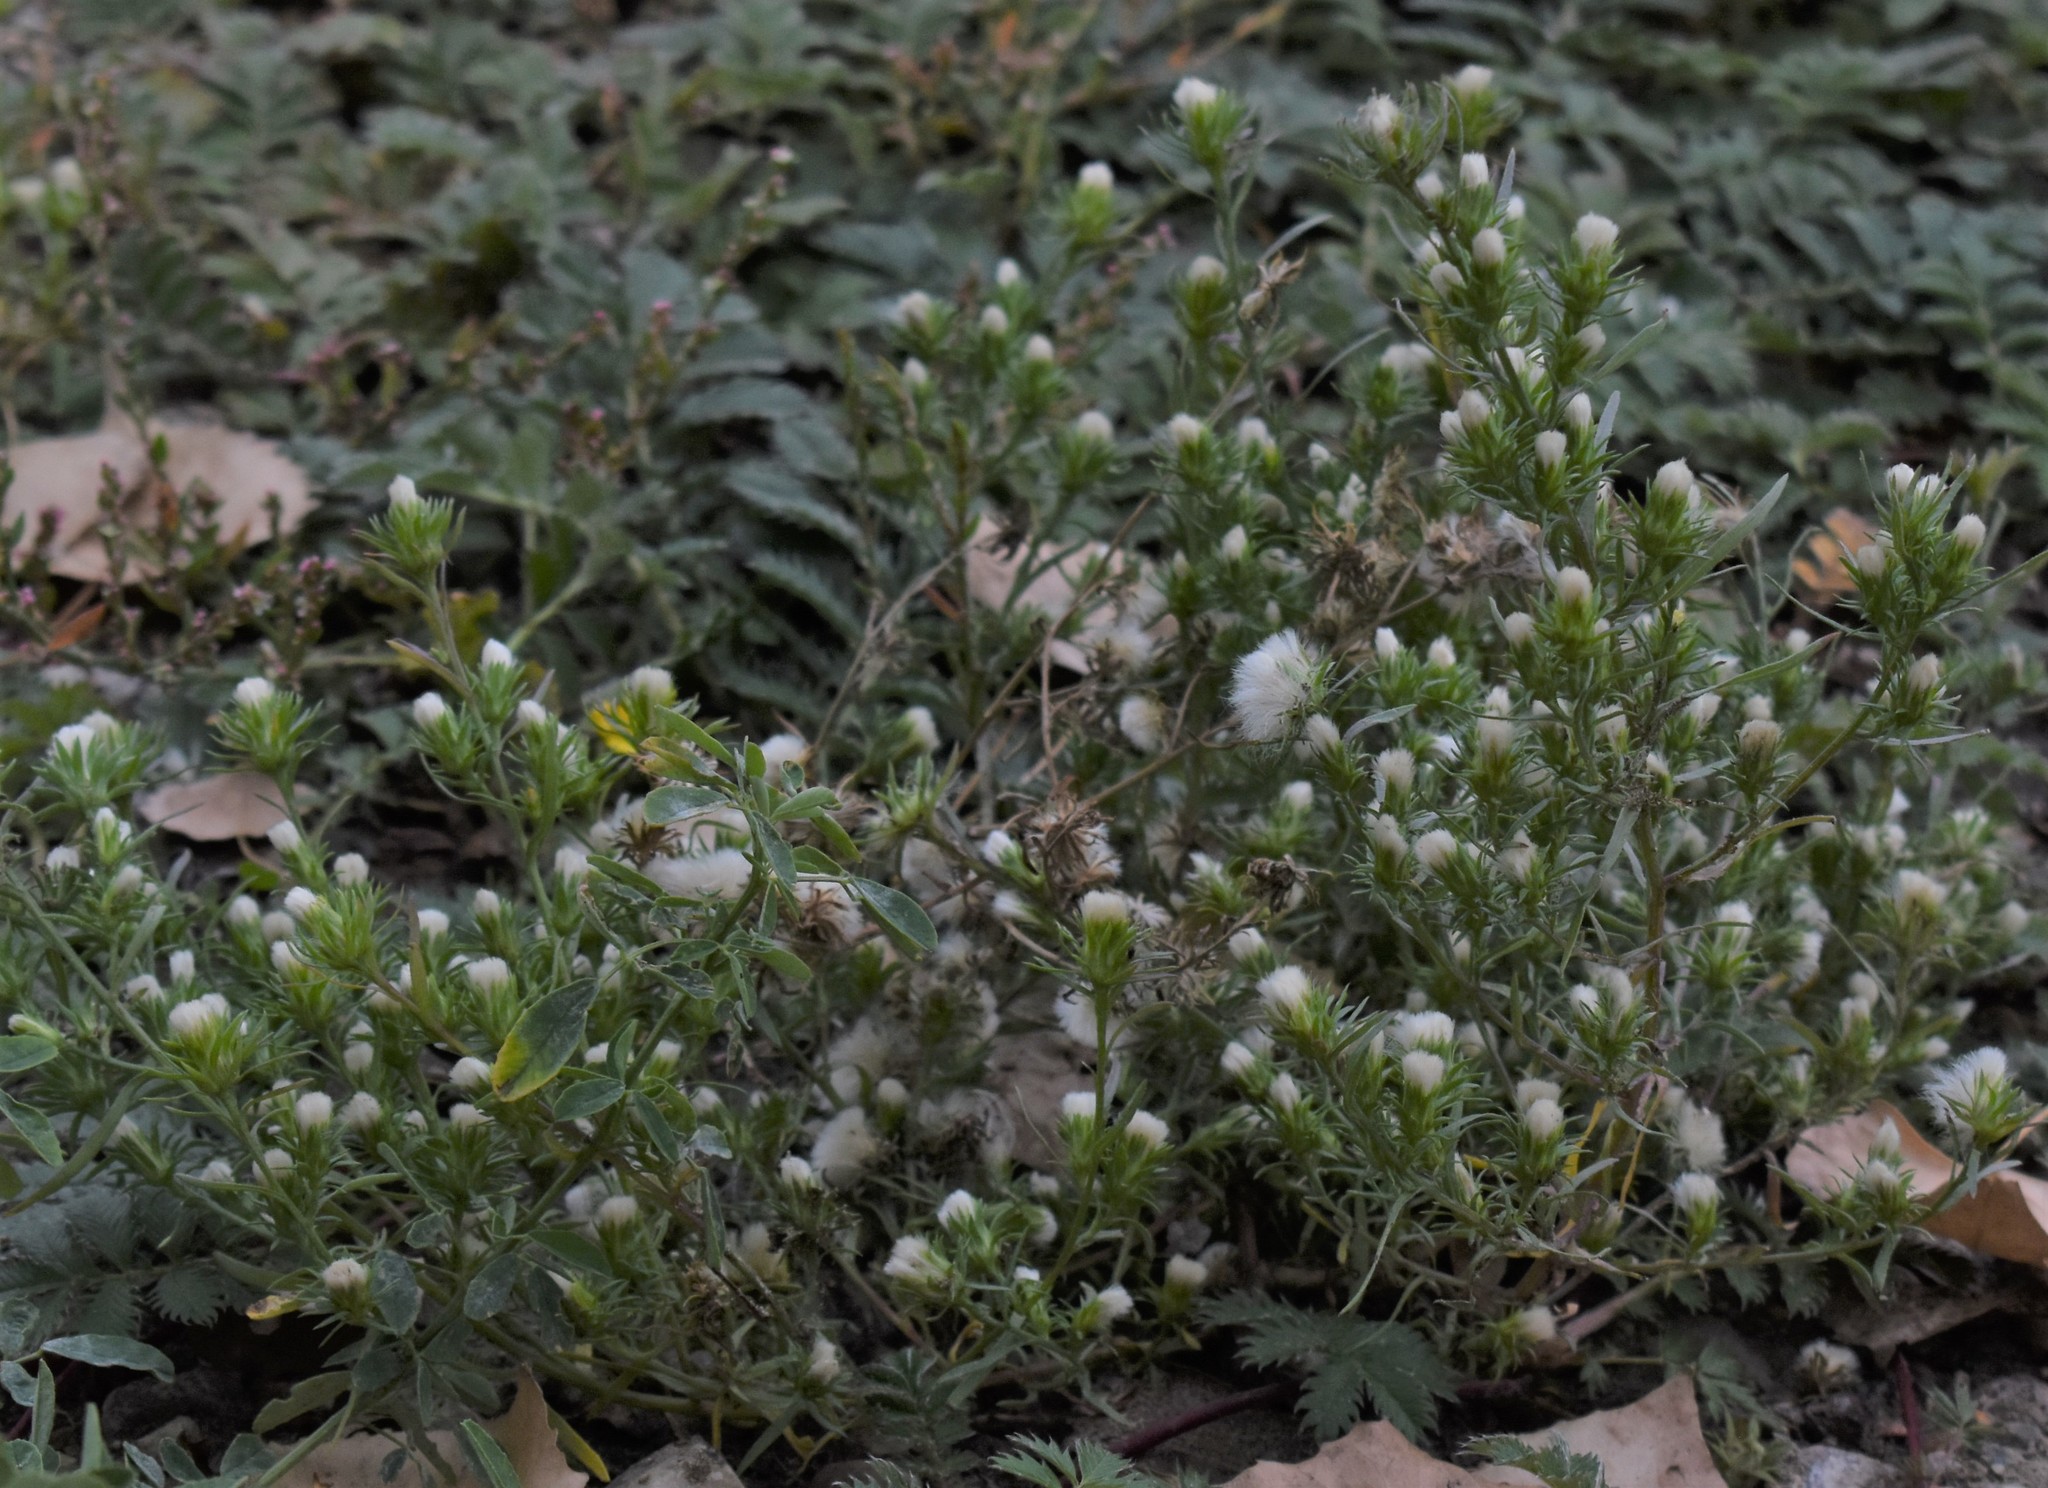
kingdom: Plantae
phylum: Tracheophyta
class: Magnoliopsida
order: Asterales
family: Asteraceae
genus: Symphyotrichum
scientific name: Symphyotrichum ciliatum
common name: Rayless annual aster
